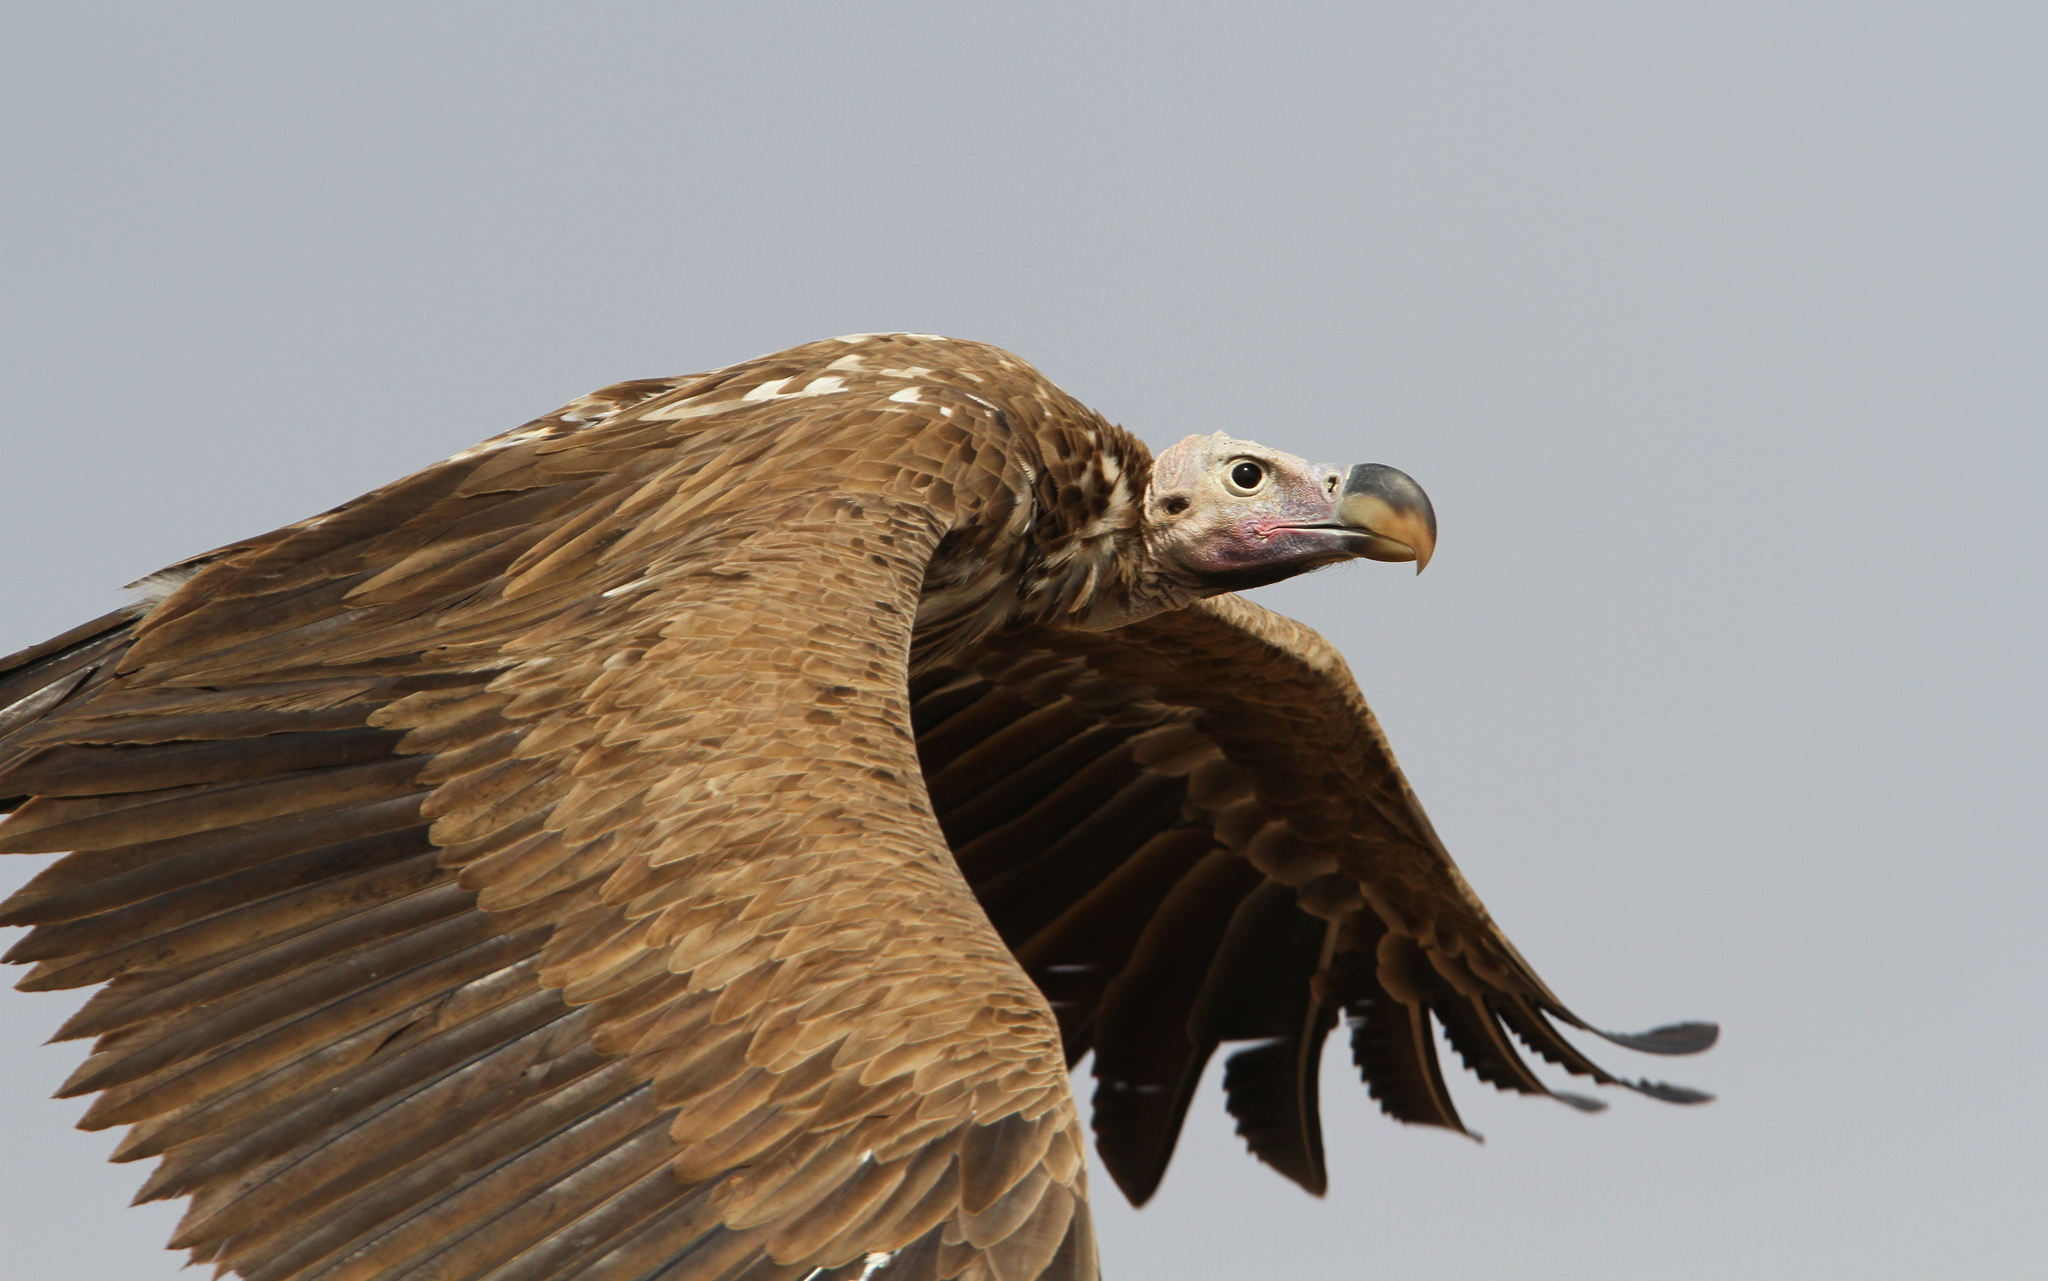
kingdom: Animalia
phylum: Chordata
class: Aves
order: Accipitriformes
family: Accipitridae
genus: Torgos
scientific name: Torgos tracheliotos
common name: Lappet-faced vulture
